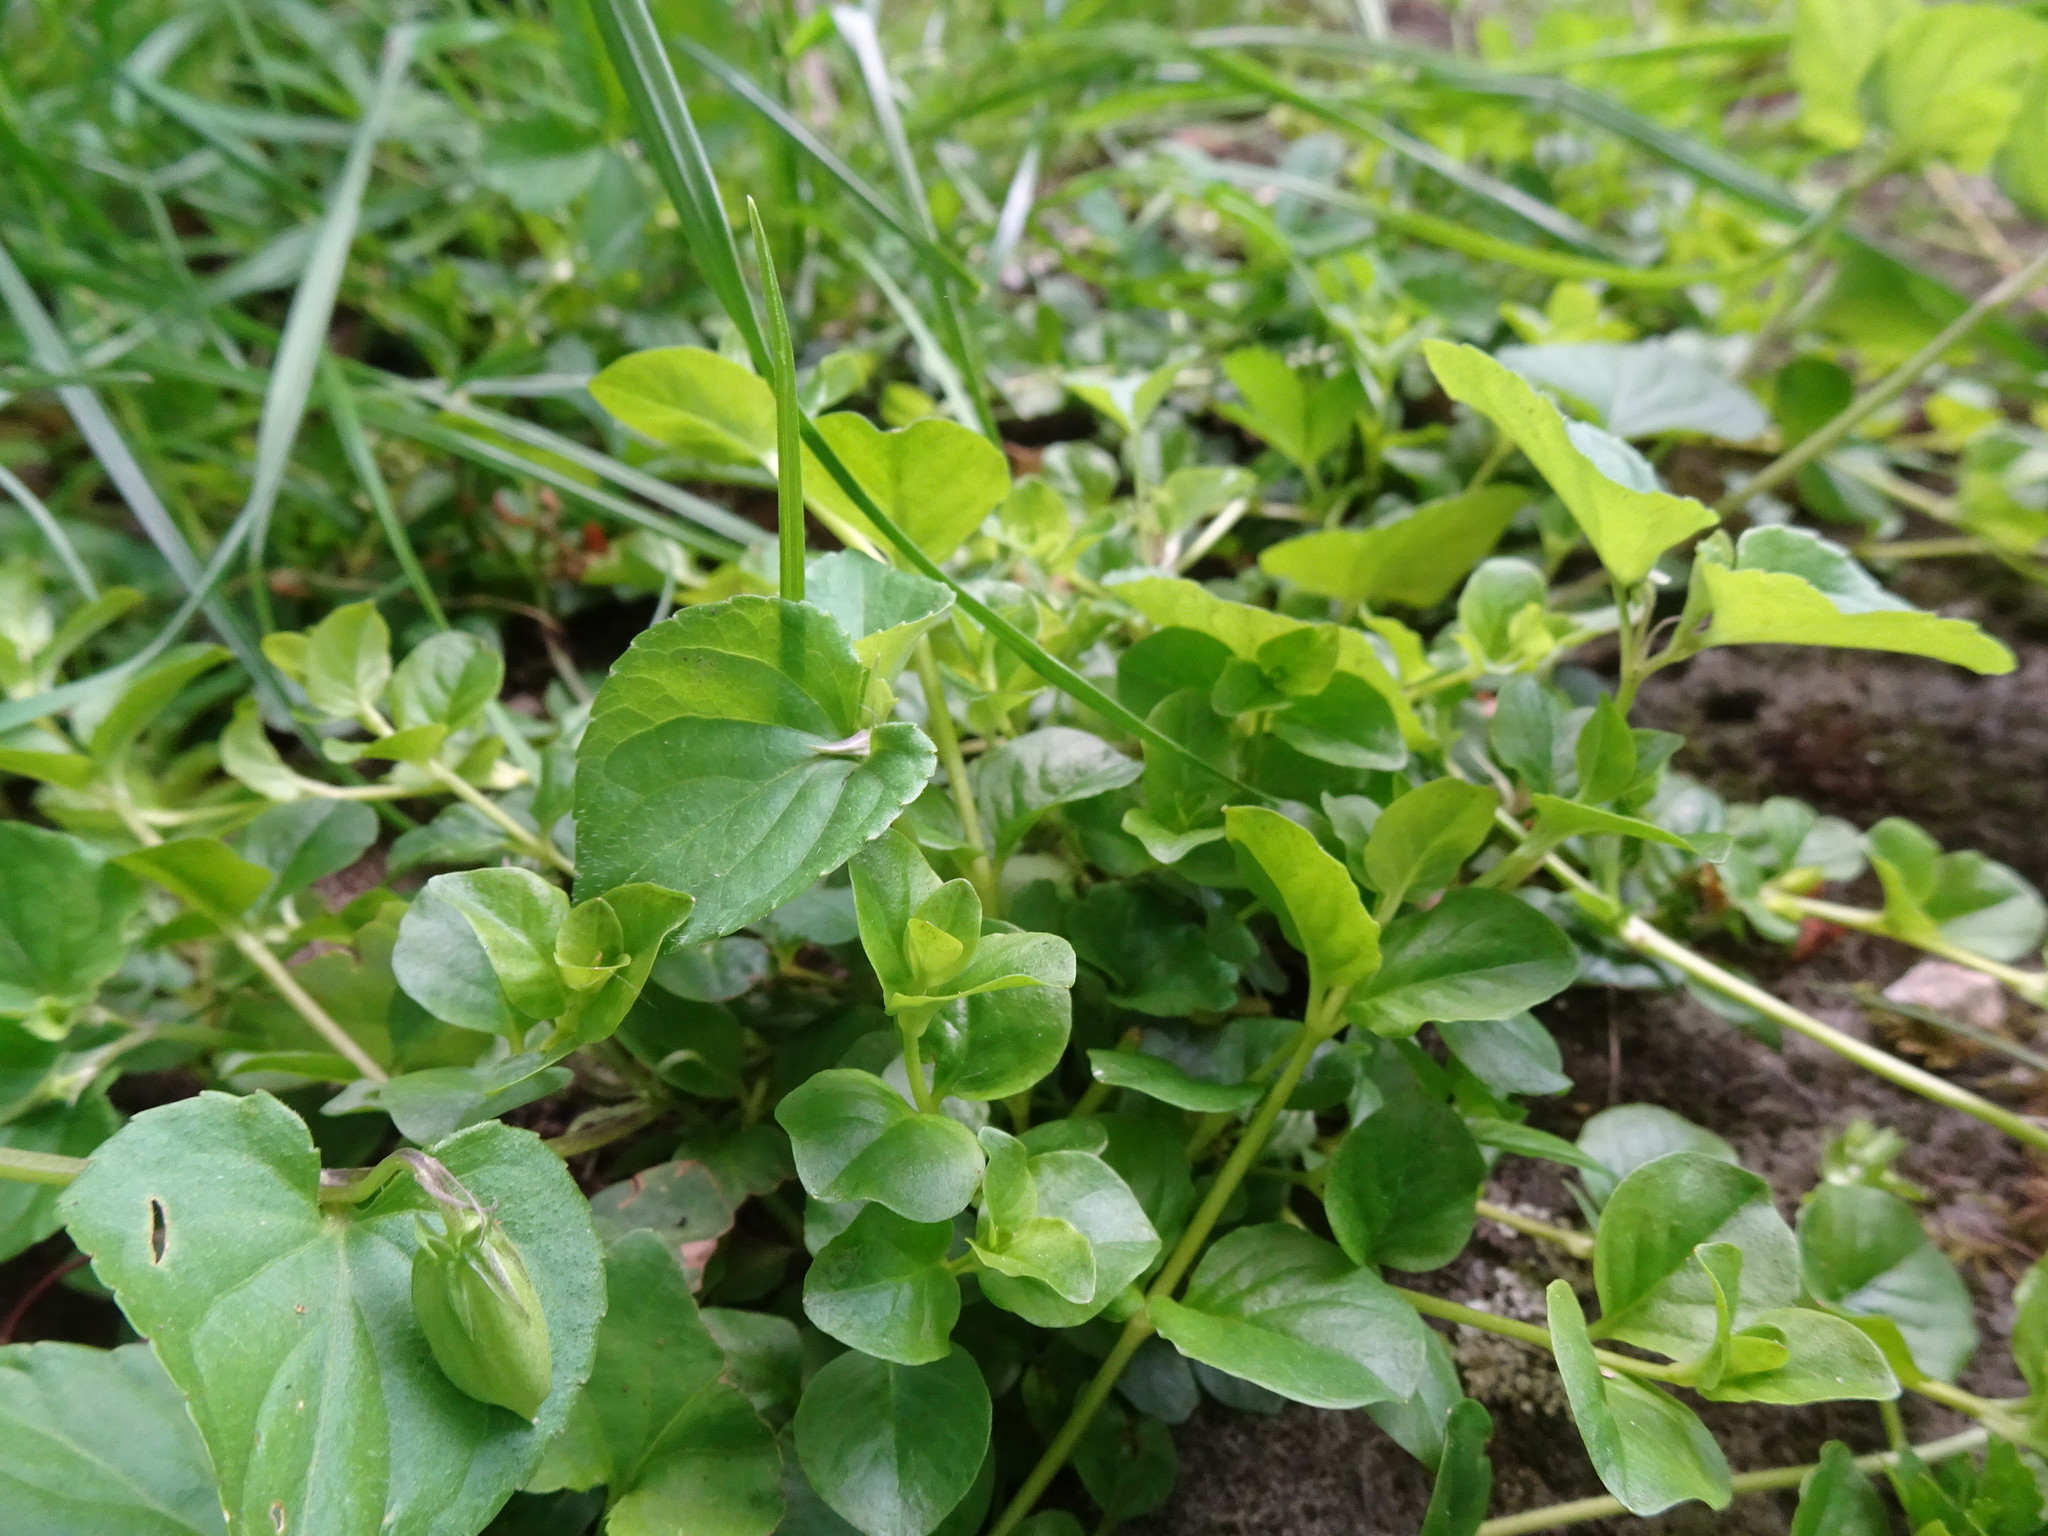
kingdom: Plantae
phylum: Tracheophyta
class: Magnoliopsida
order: Ericales
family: Primulaceae
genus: Lysimachia
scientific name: Lysimachia nummularia
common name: Moneywort
